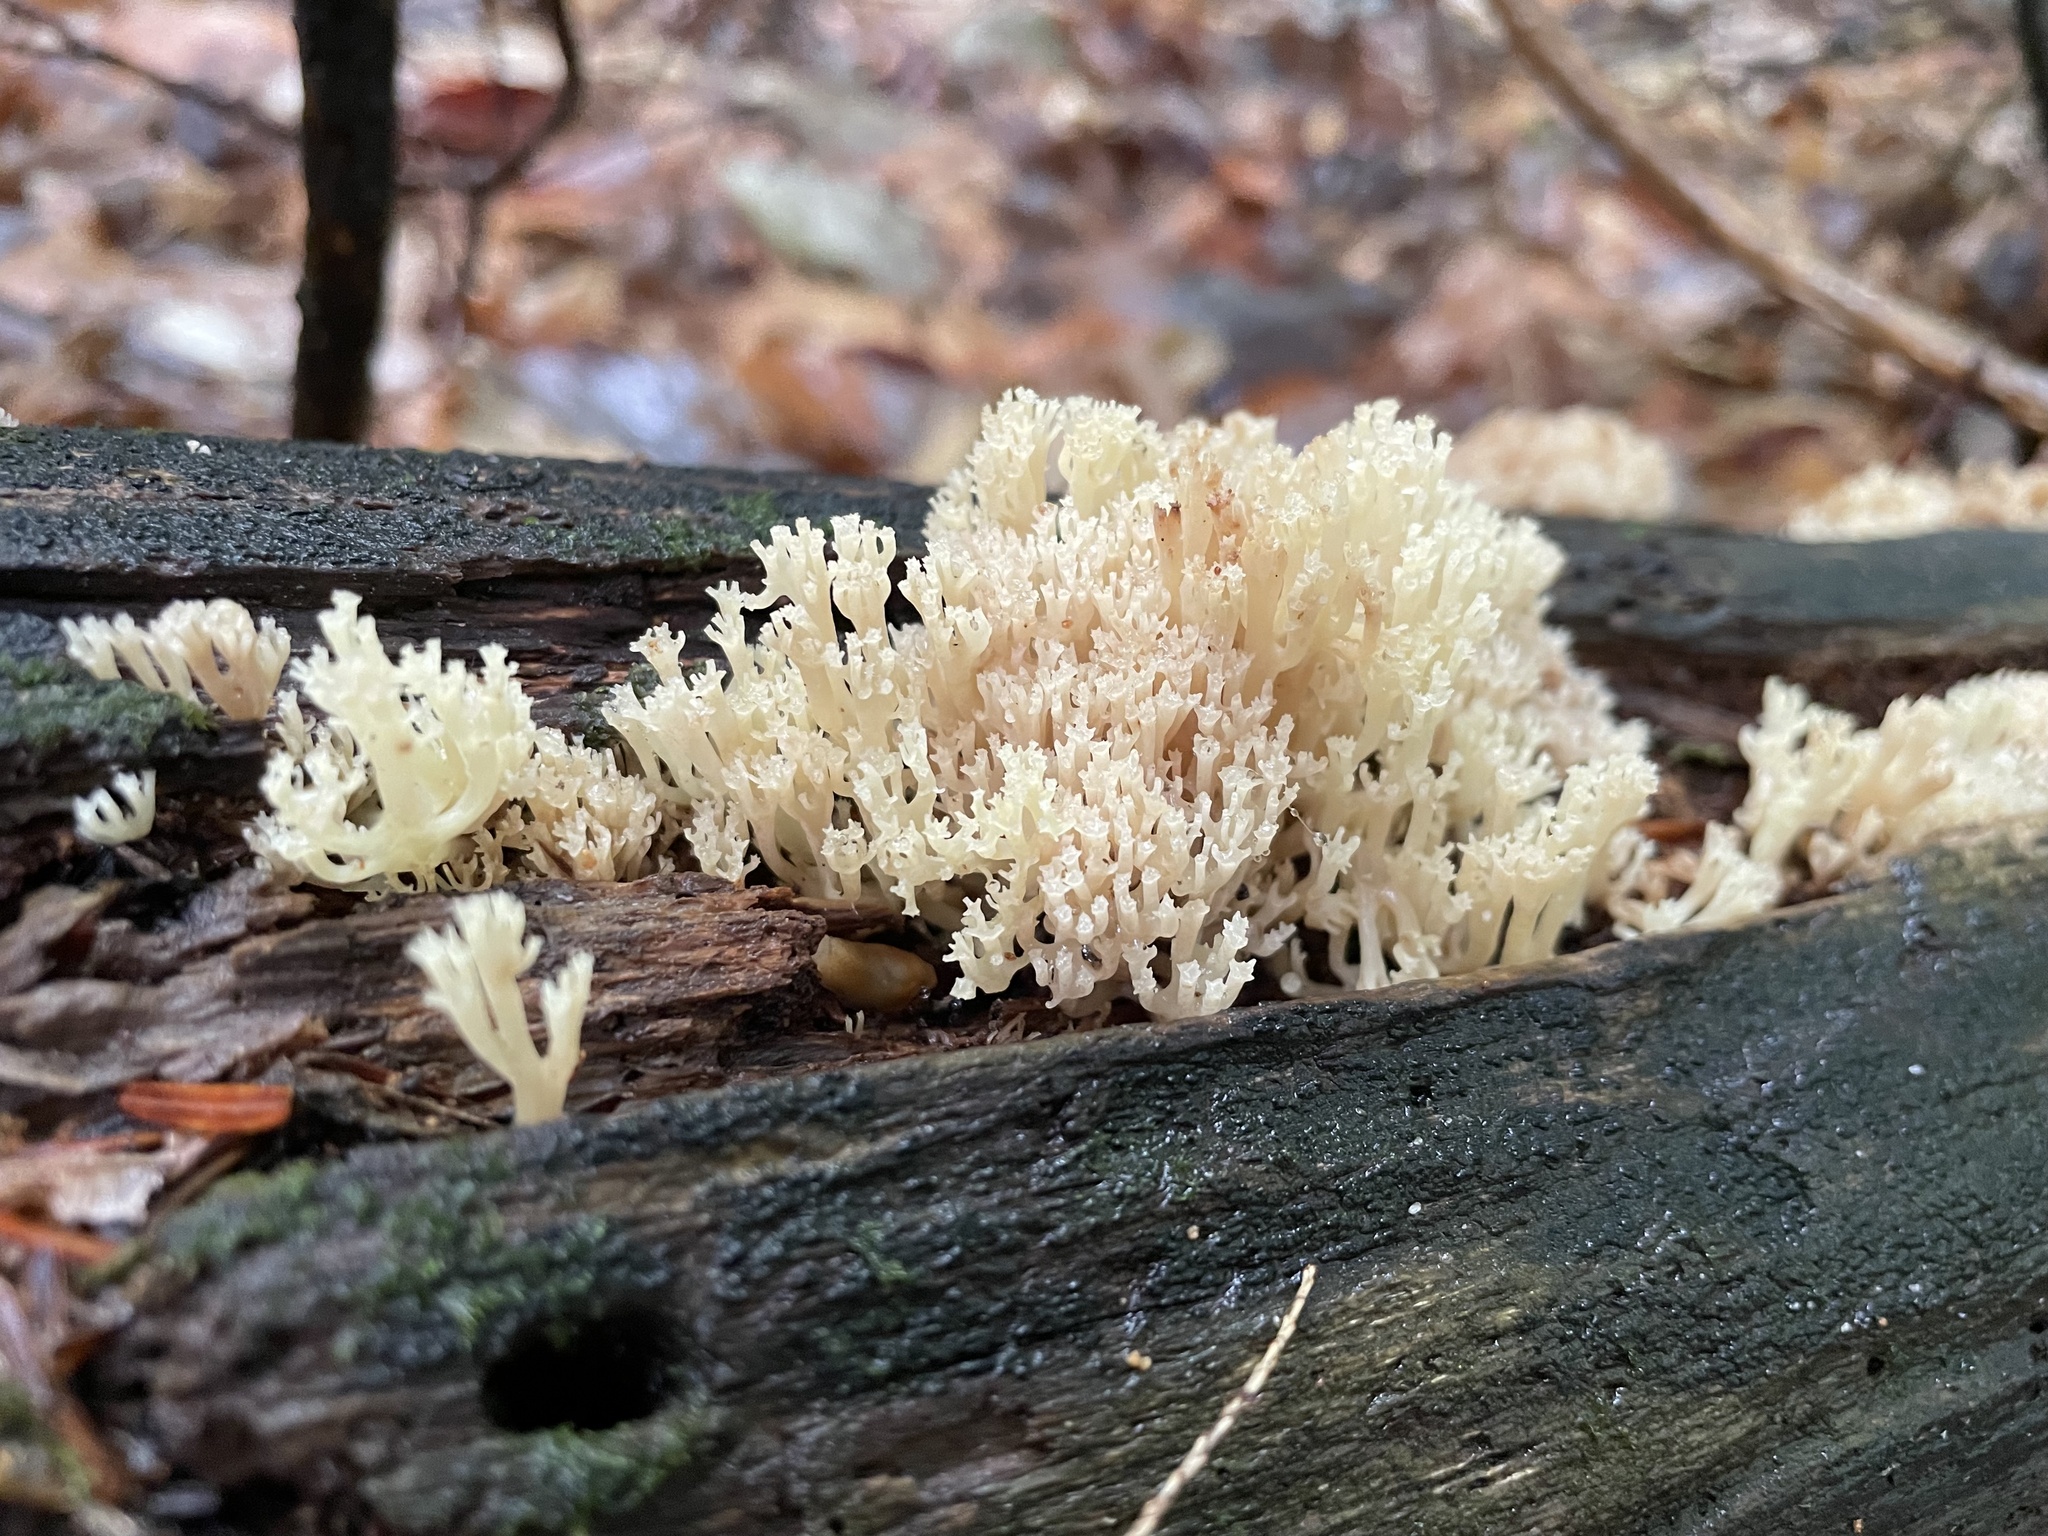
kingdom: Fungi
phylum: Basidiomycota
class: Agaricomycetes
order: Russulales
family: Auriscalpiaceae
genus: Artomyces
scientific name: Artomyces pyxidatus
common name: Crown-tipped coral fungus
